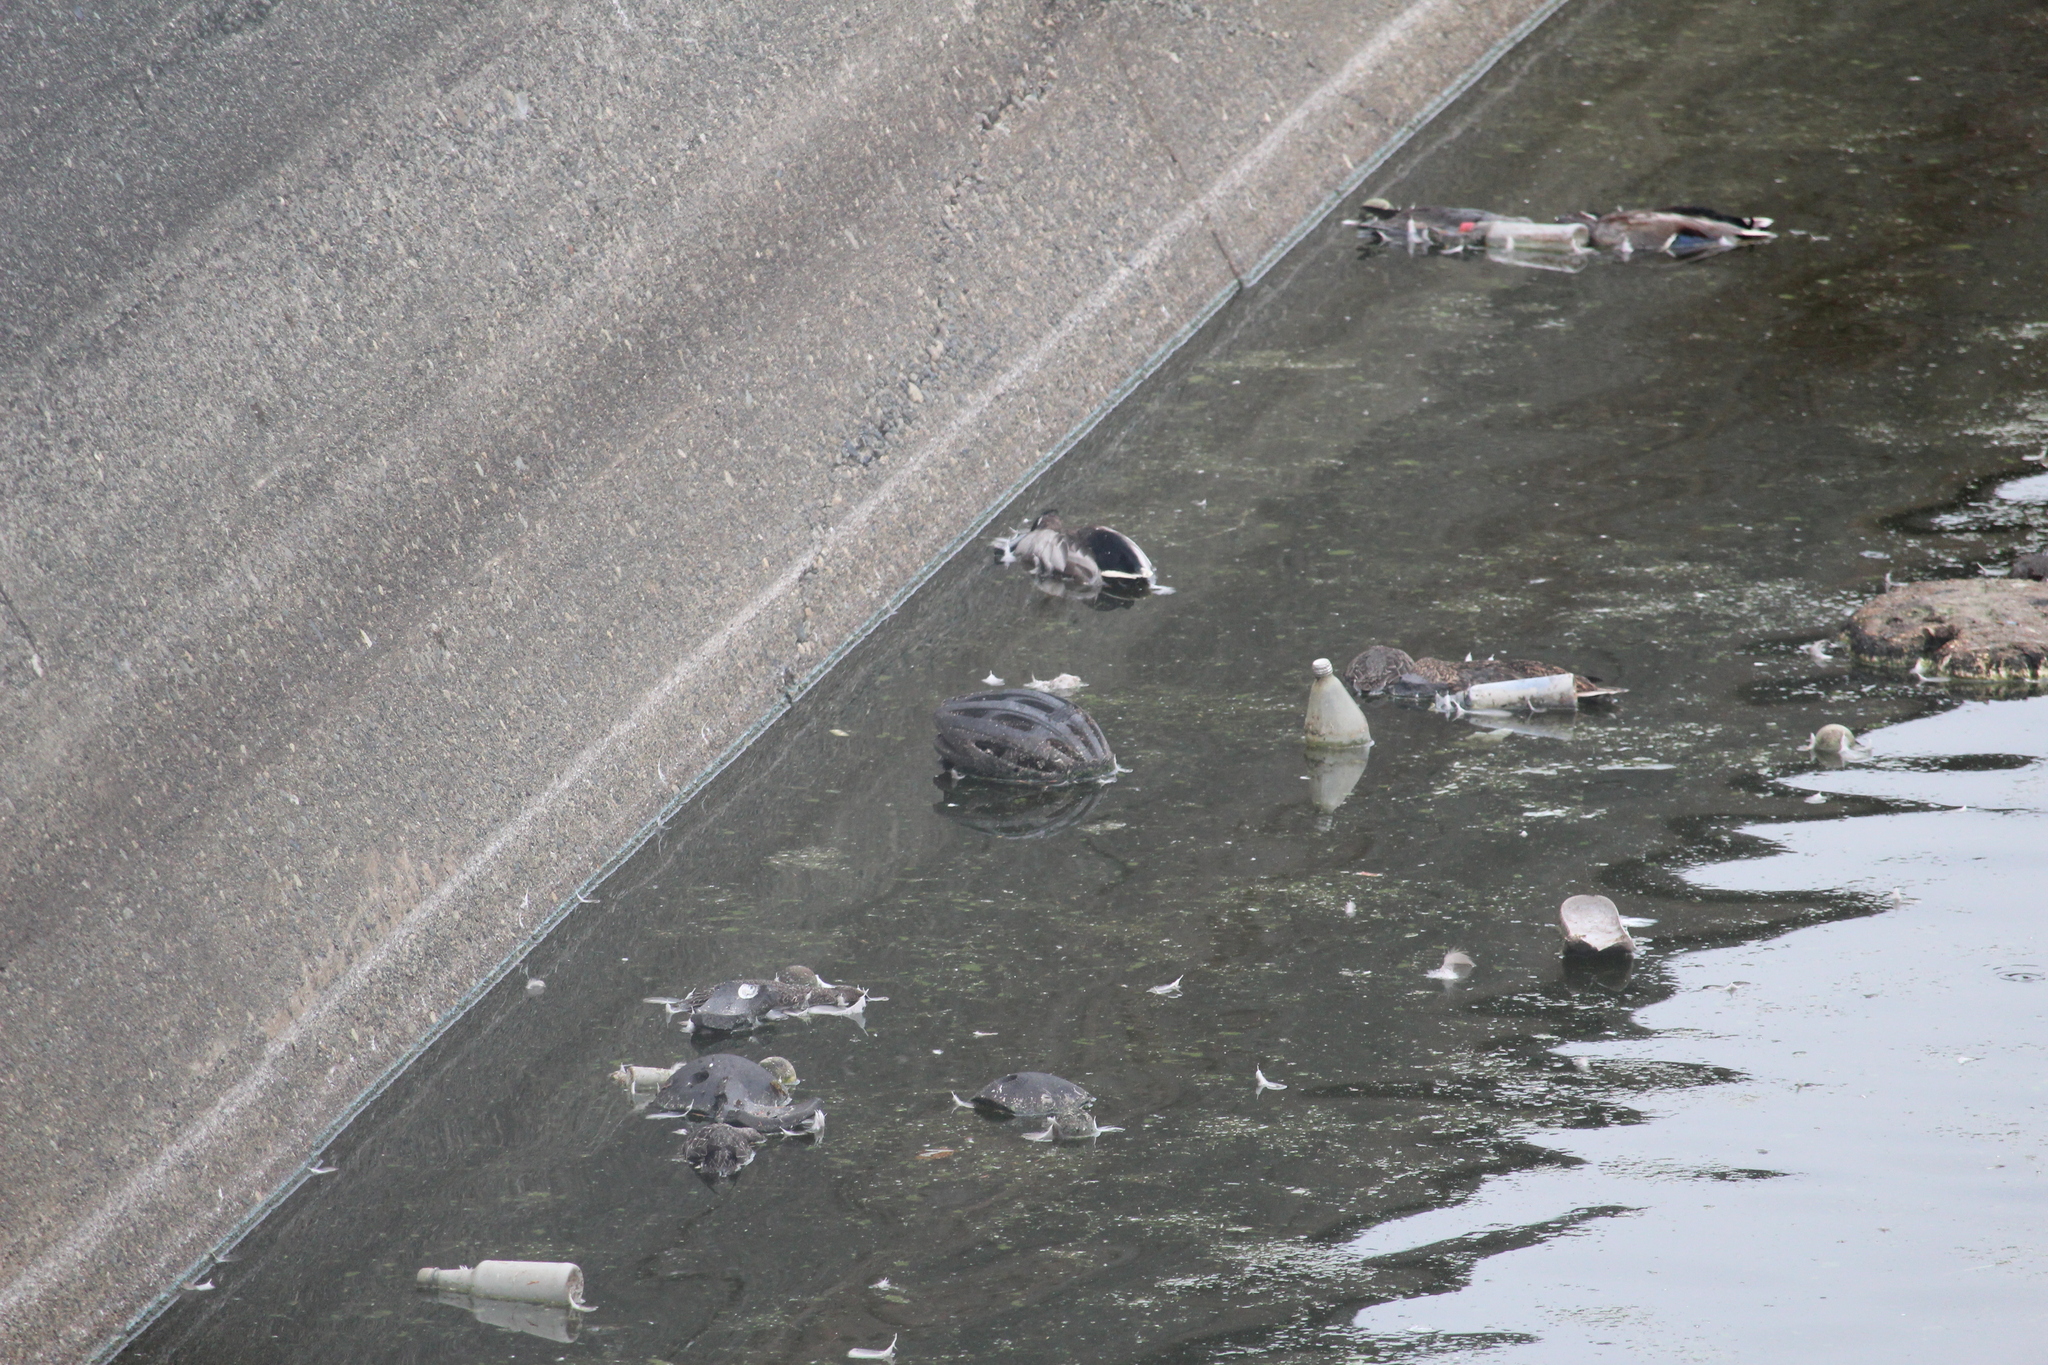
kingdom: Animalia
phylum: Chordata
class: Aves
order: Anseriformes
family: Anatidae
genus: Anas
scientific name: Anas platyrhynchos
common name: Mallard
